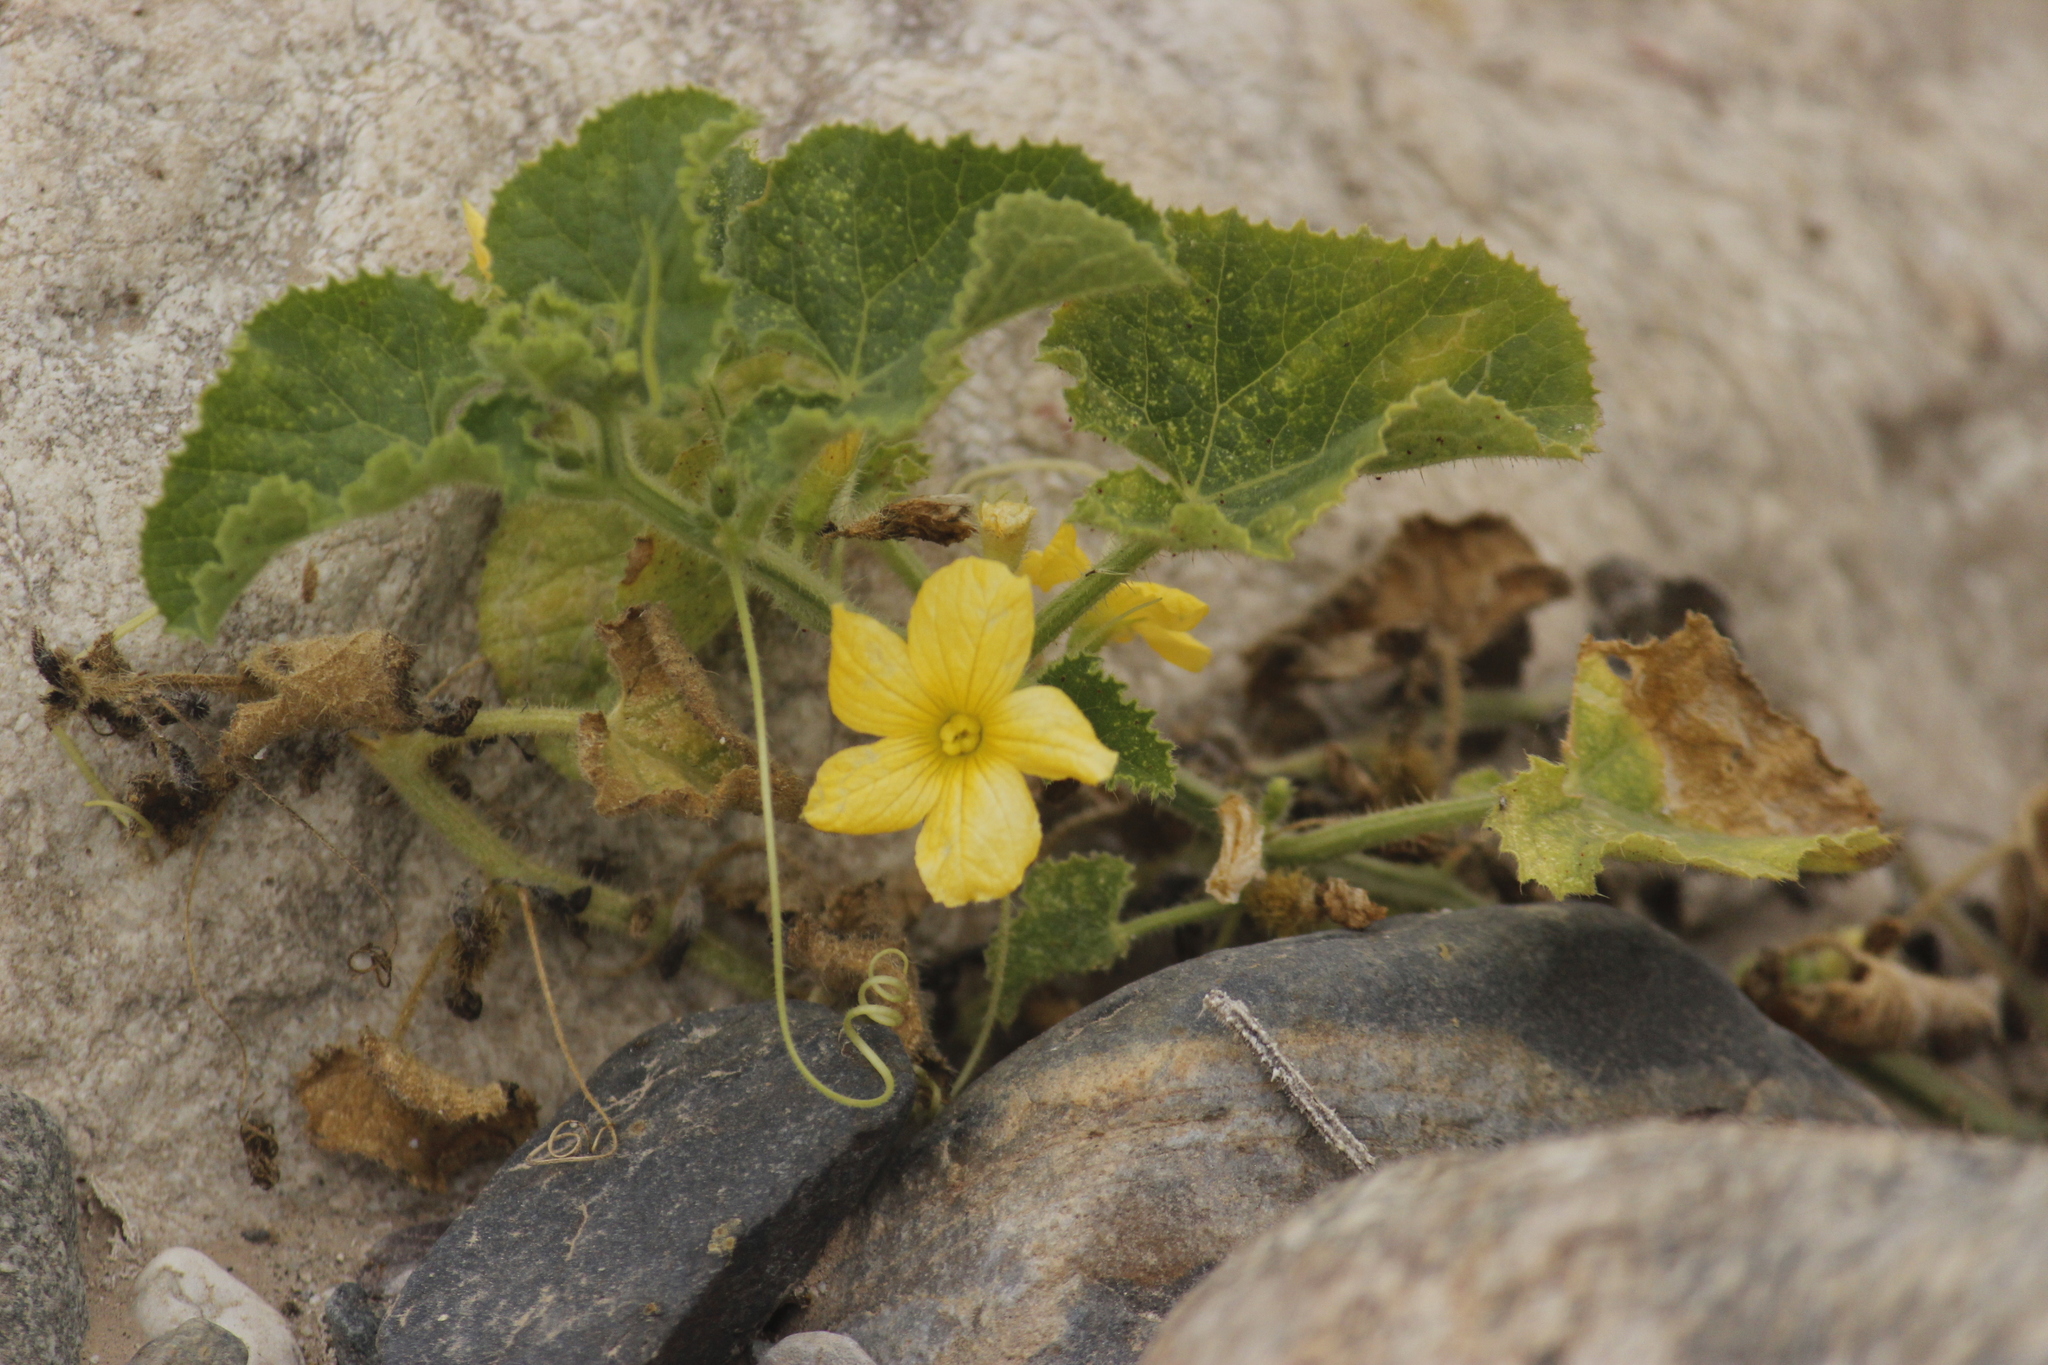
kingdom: Plantae
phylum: Tracheophyta
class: Magnoliopsida
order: Cucurbitales
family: Cucurbitaceae
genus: Cucumis
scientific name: Cucumis dipsaceus
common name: Hedgehog gourd
